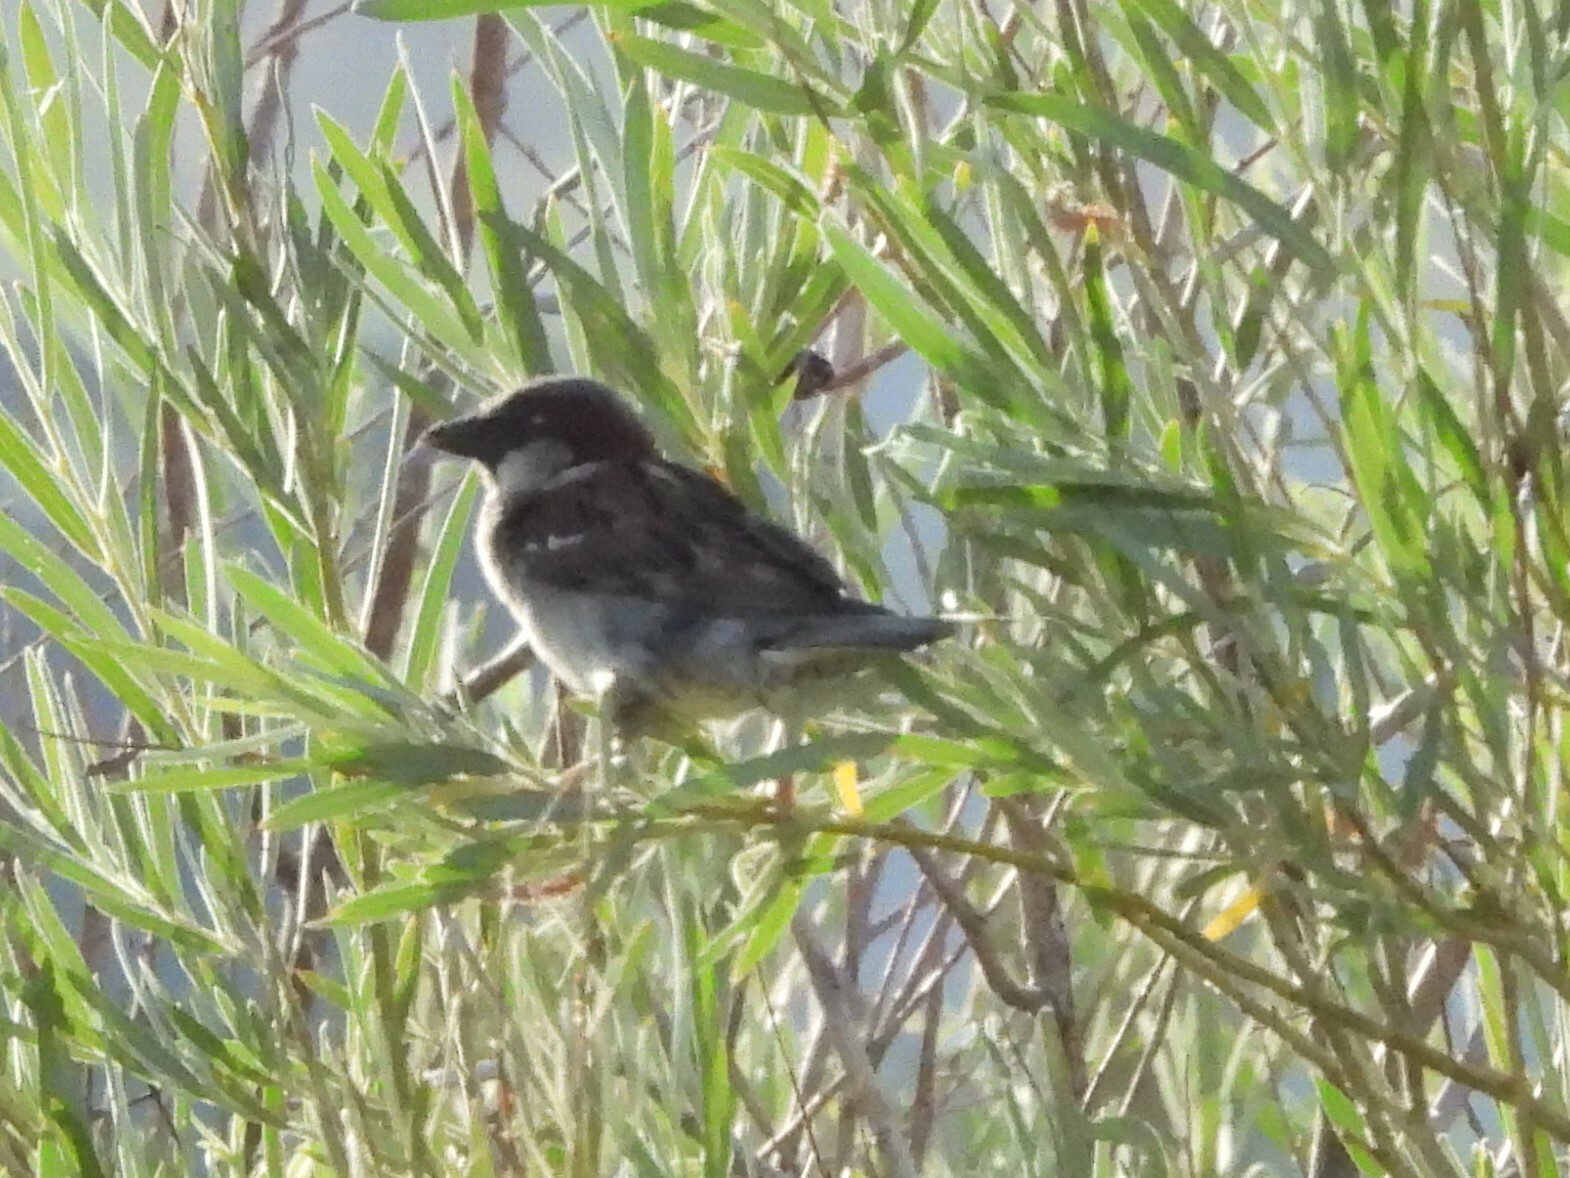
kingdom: Animalia
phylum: Chordata
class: Aves
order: Passeriformes
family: Passeridae
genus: Passer
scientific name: Passer domesticus
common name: House sparrow
